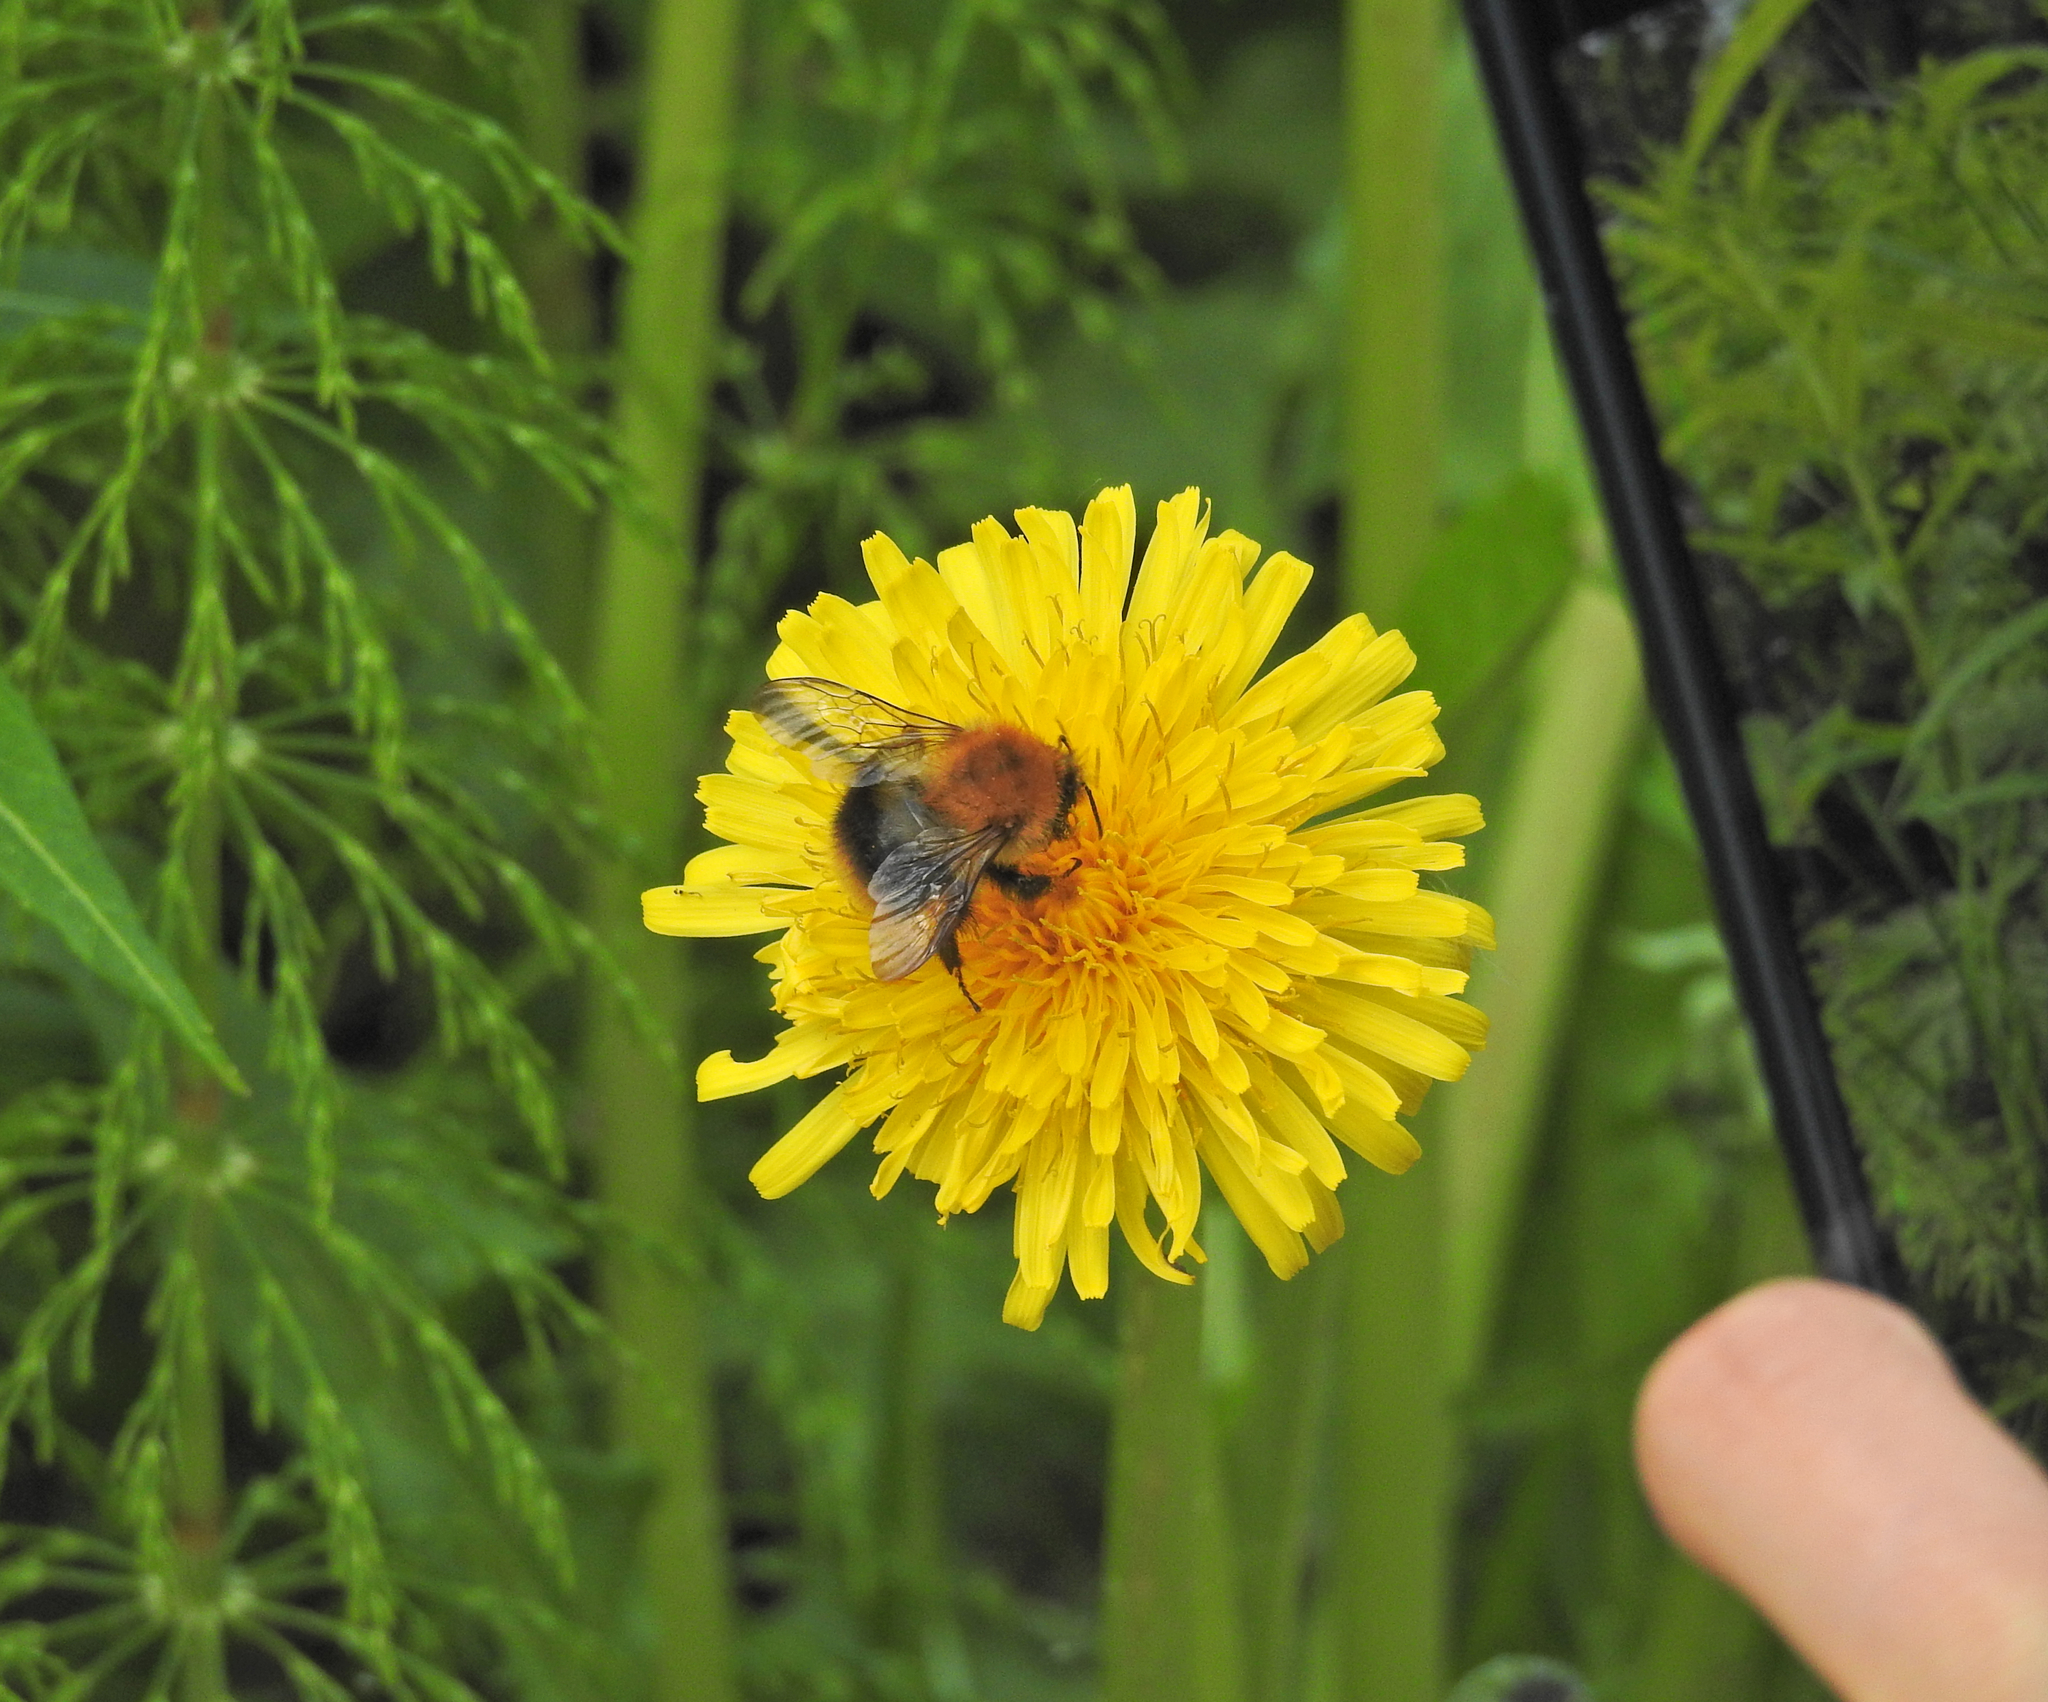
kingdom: Animalia
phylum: Arthropoda
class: Insecta
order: Hymenoptera
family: Apidae
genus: Bombus
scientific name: Bombus pascuorum
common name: Common carder bee
